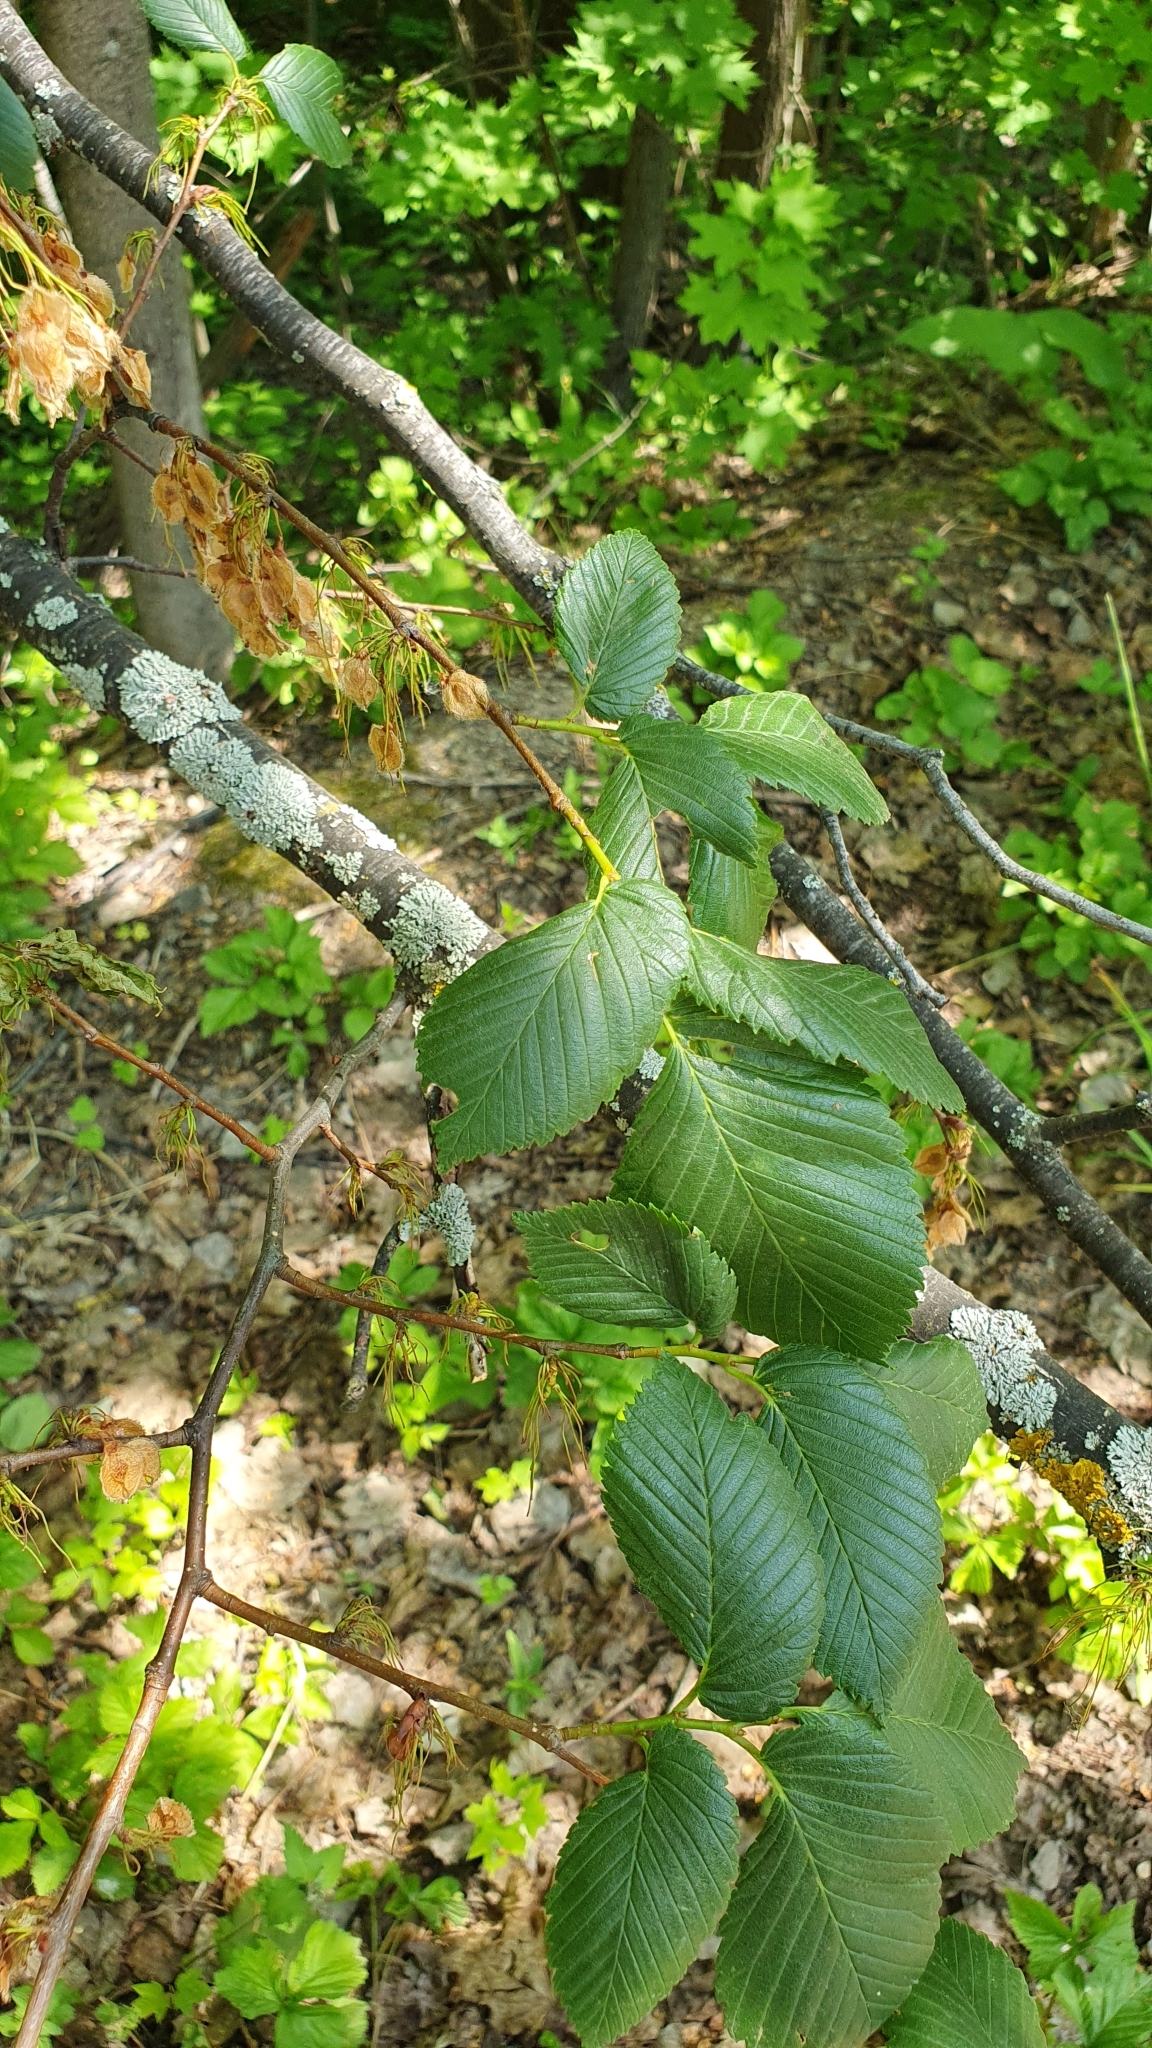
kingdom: Plantae
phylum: Tracheophyta
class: Magnoliopsida
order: Rosales
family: Ulmaceae
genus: Ulmus
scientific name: Ulmus laevis
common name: European white-elm
